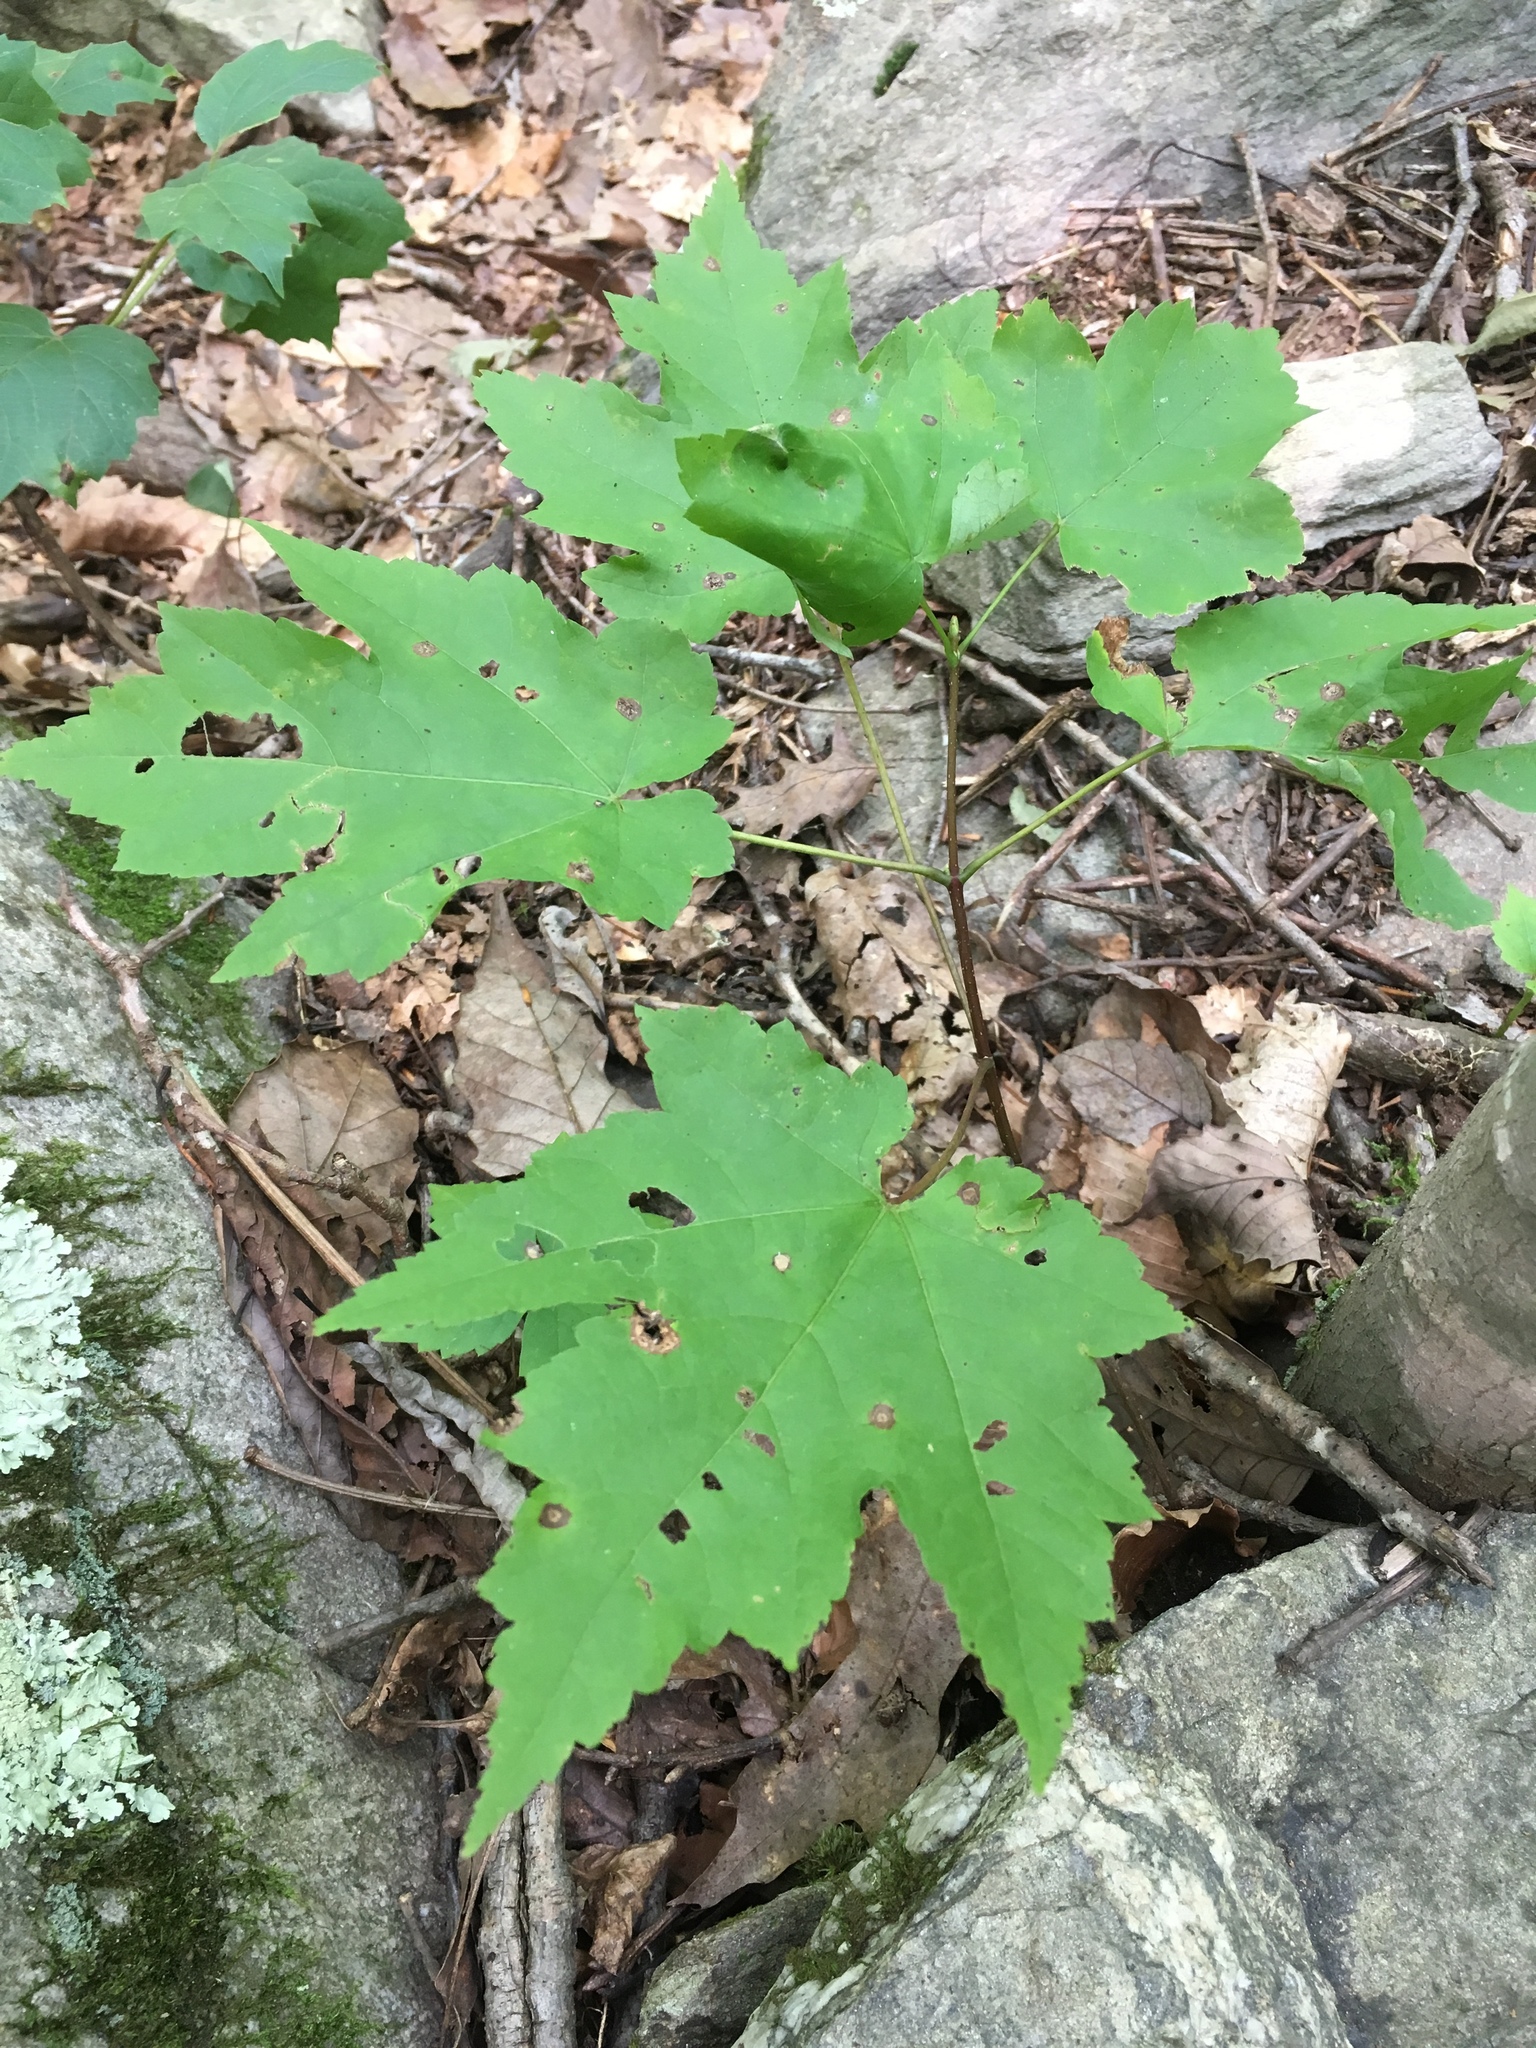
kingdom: Plantae
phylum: Tracheophyta
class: Magnoliopsida
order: Sapindales
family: Sapindaceae
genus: Acer
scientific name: Acer rubrum
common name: Red maple
